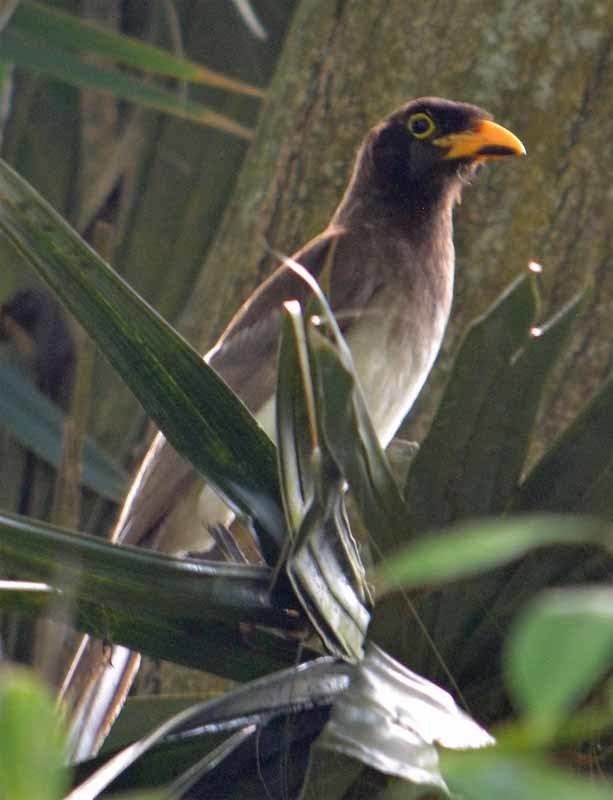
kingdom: Animalia
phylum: Chordata
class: Aves
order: Passeriformes
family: Corvidae
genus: Psilorhinus
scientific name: Psilorhinus morio
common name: Brown jay
